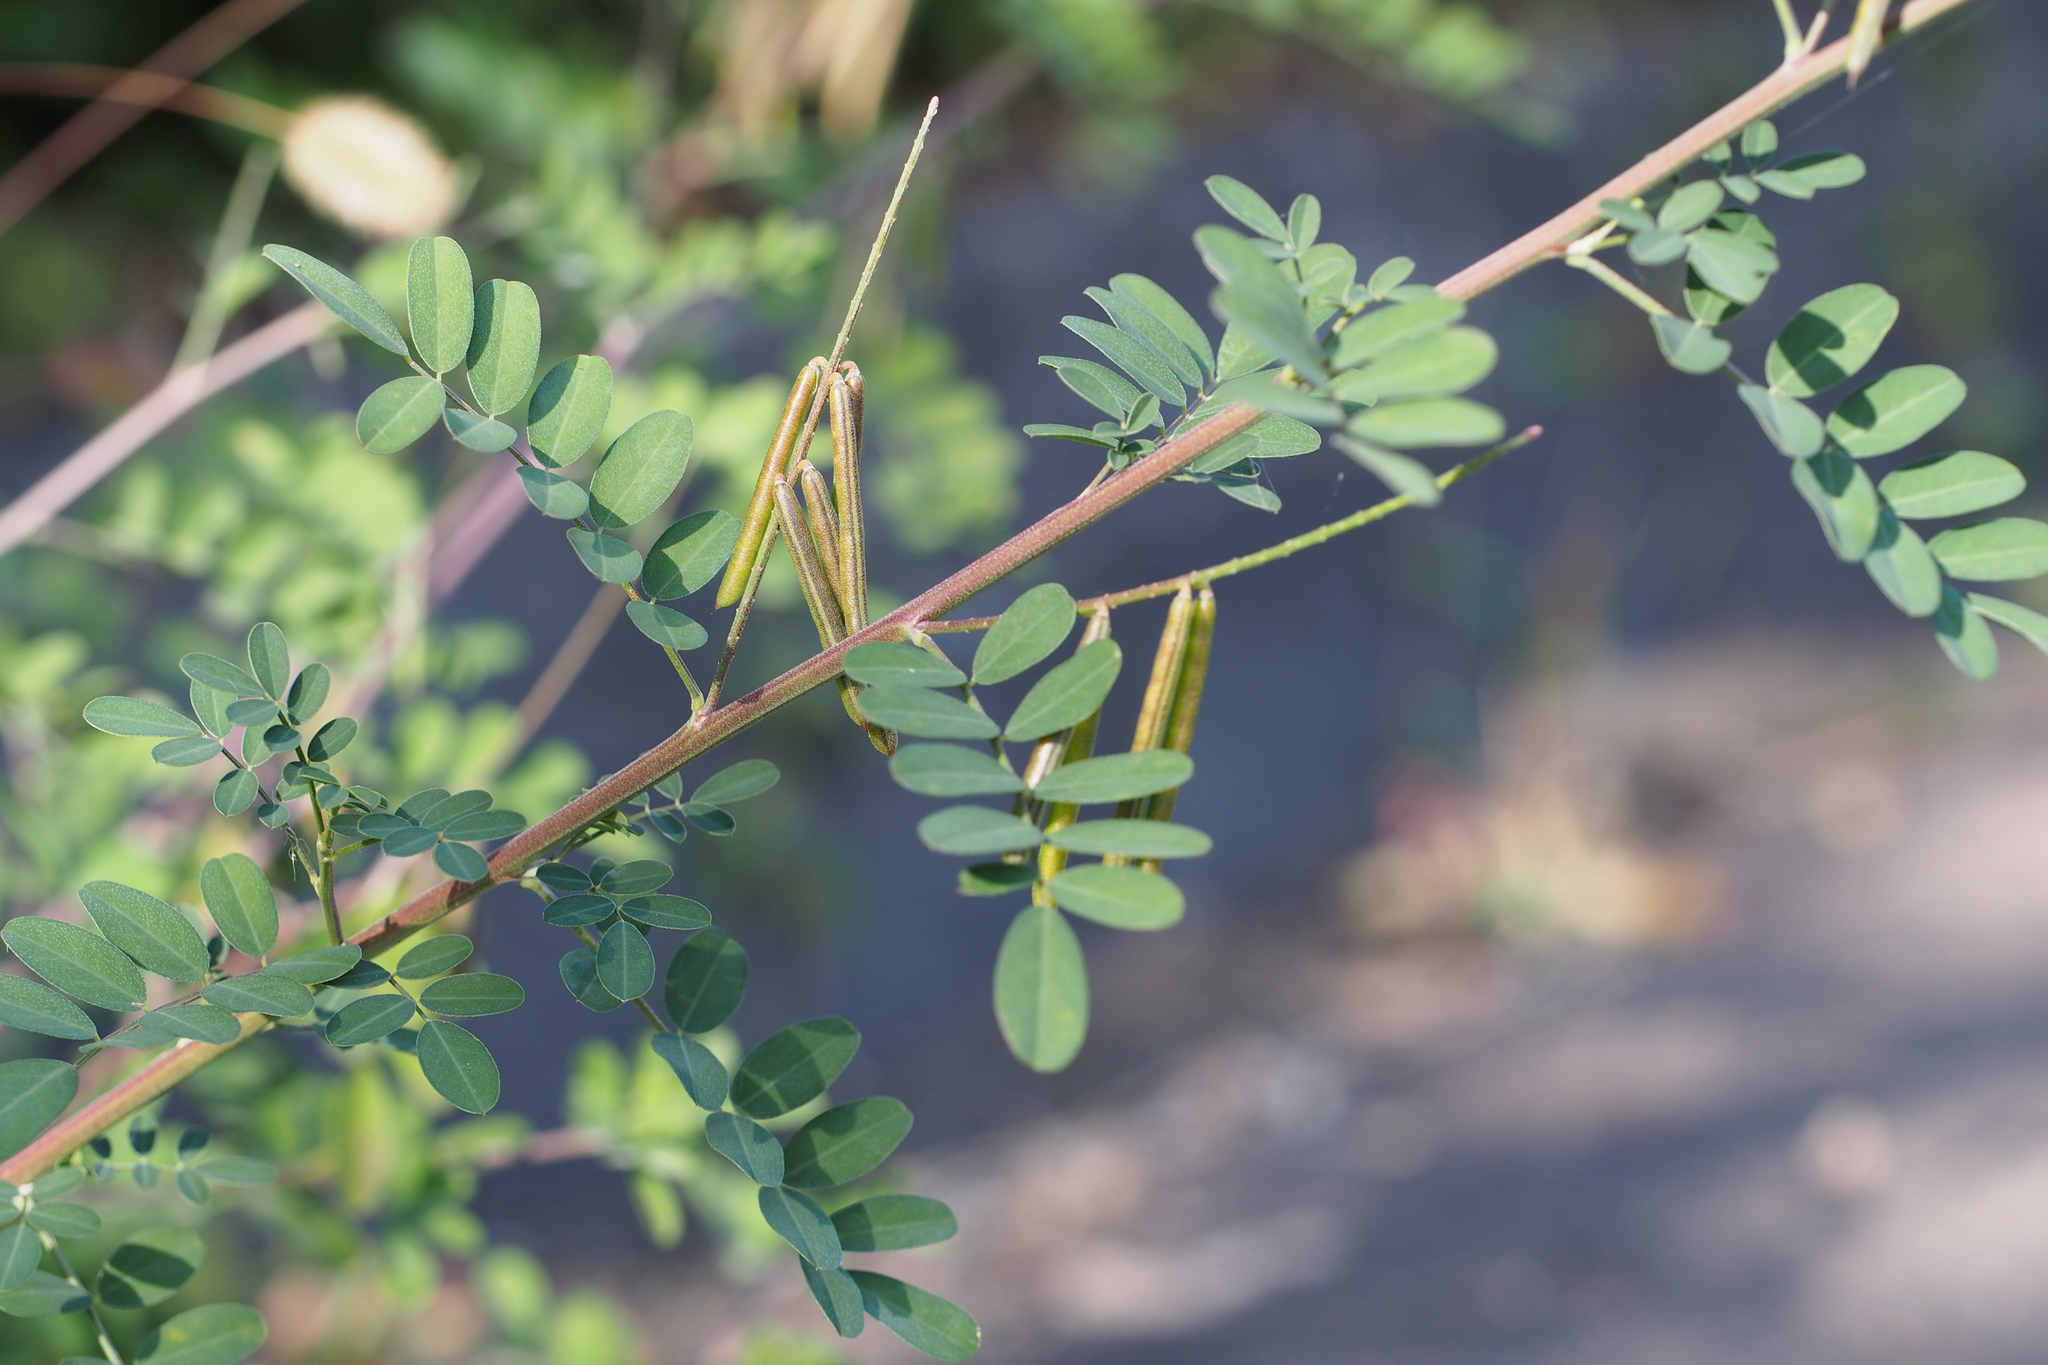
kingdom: Plantae
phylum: Tracheophyta
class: Magnoliopsida
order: Fabales
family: Fabaceae
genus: Indigofera
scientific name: Indigofera bungeana
